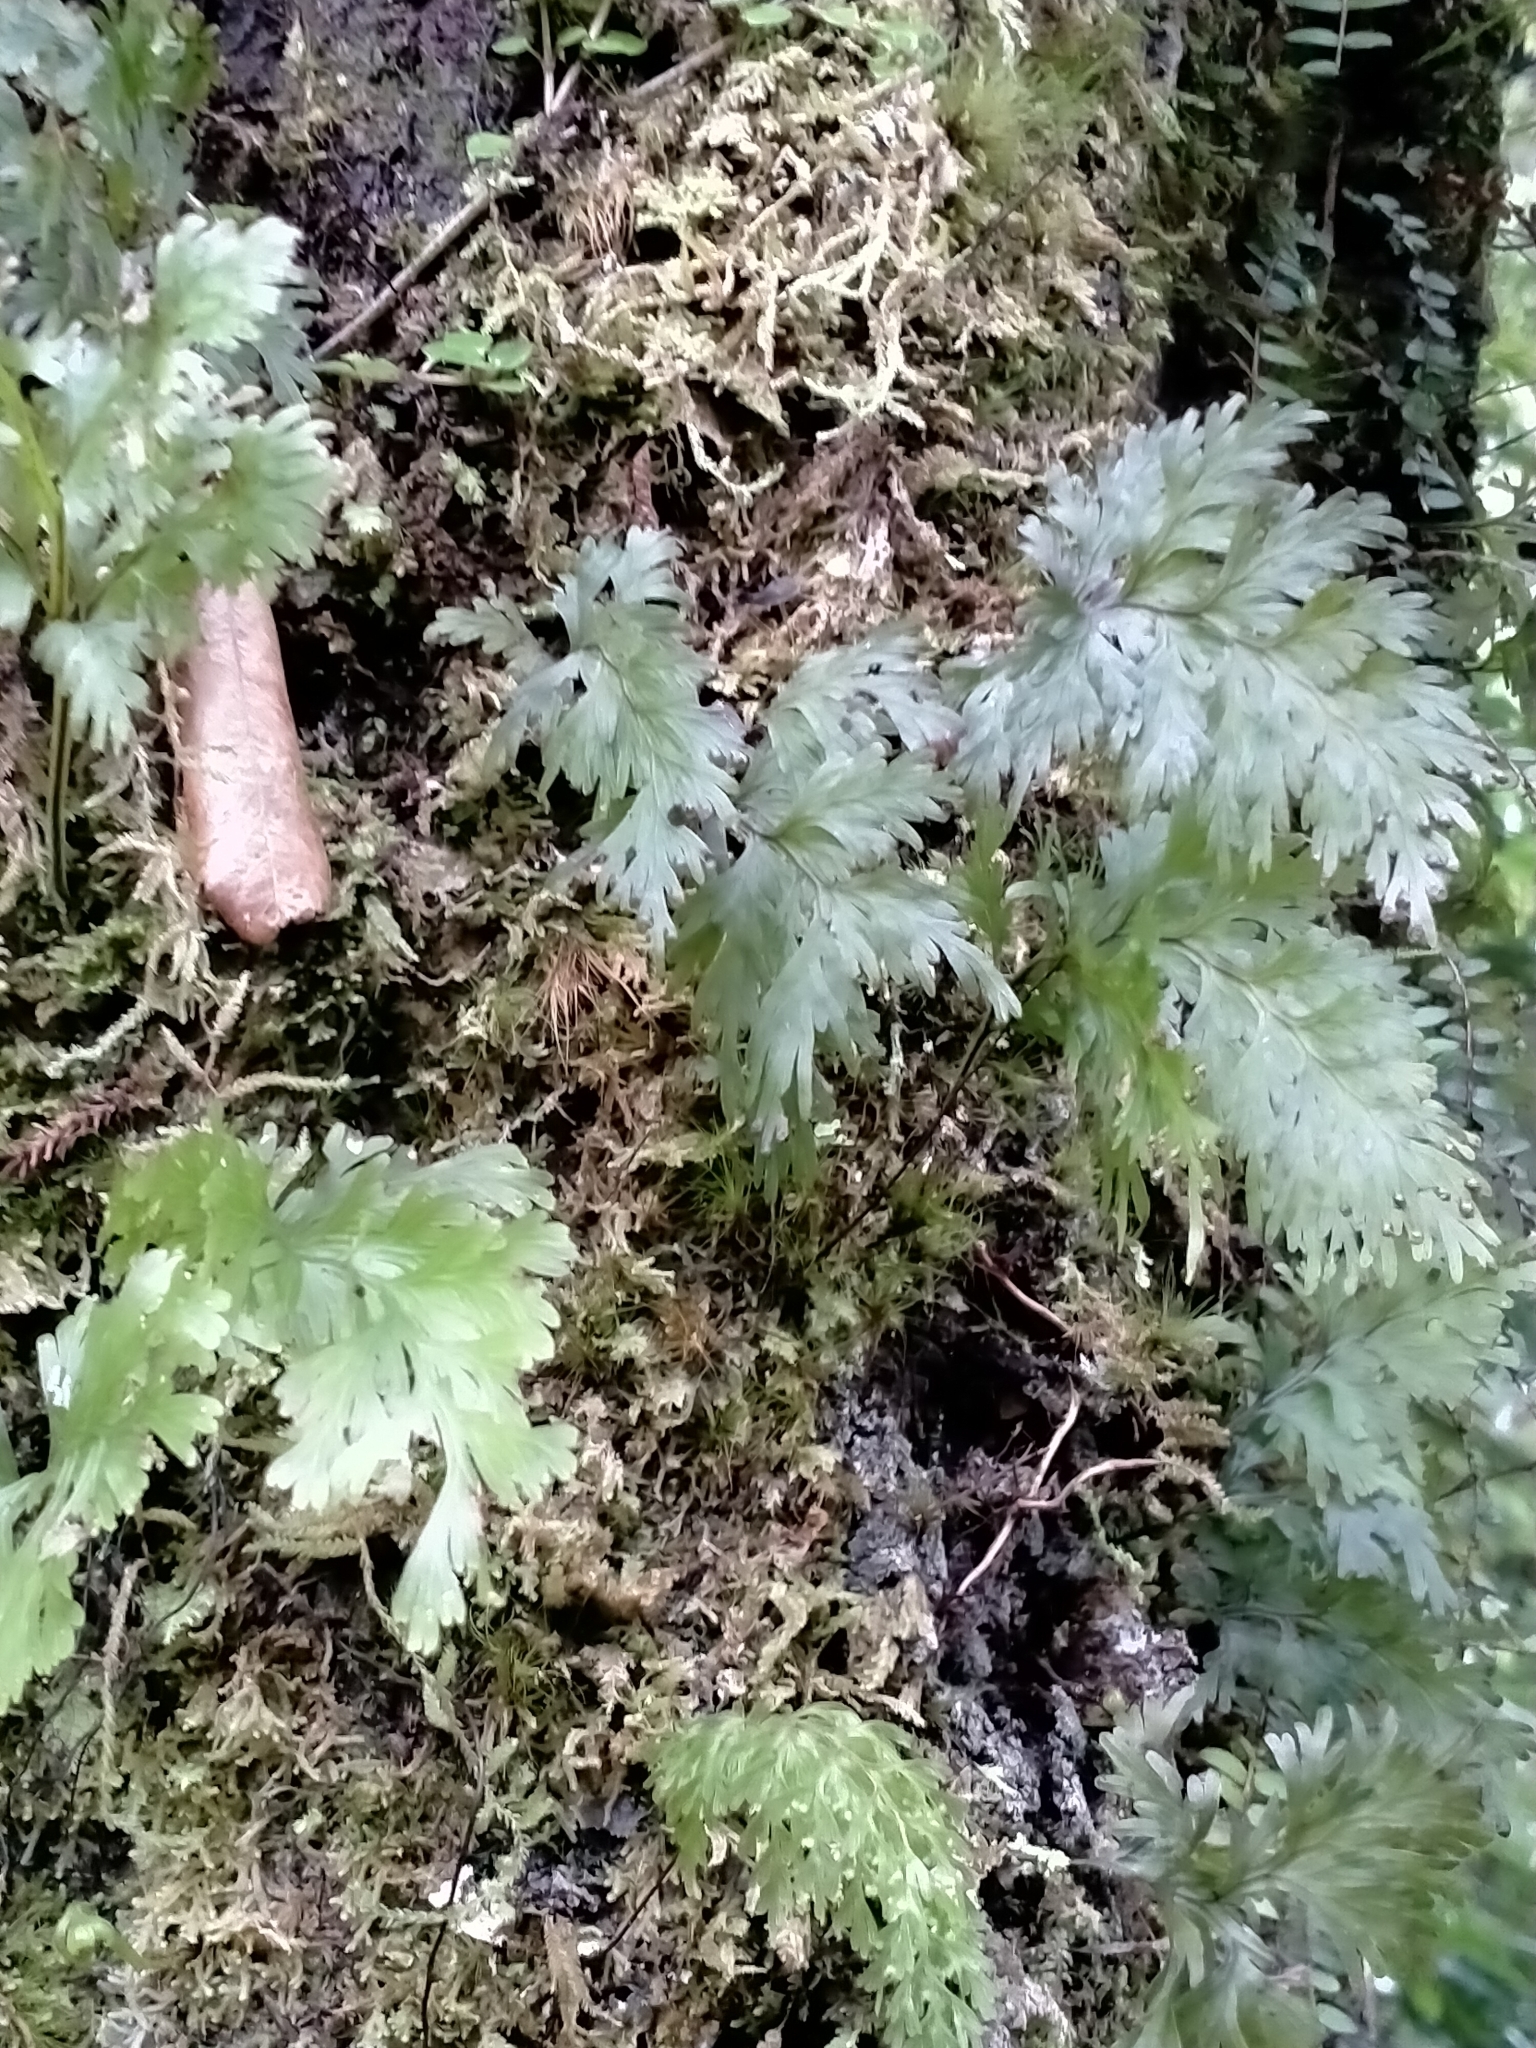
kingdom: Plantae
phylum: Tracheophyta
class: Polypodiopsida
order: Hymenophyllales
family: Hymenophyllaceae
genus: Hymenophyllum
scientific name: Hymenophyllum dilatatum
